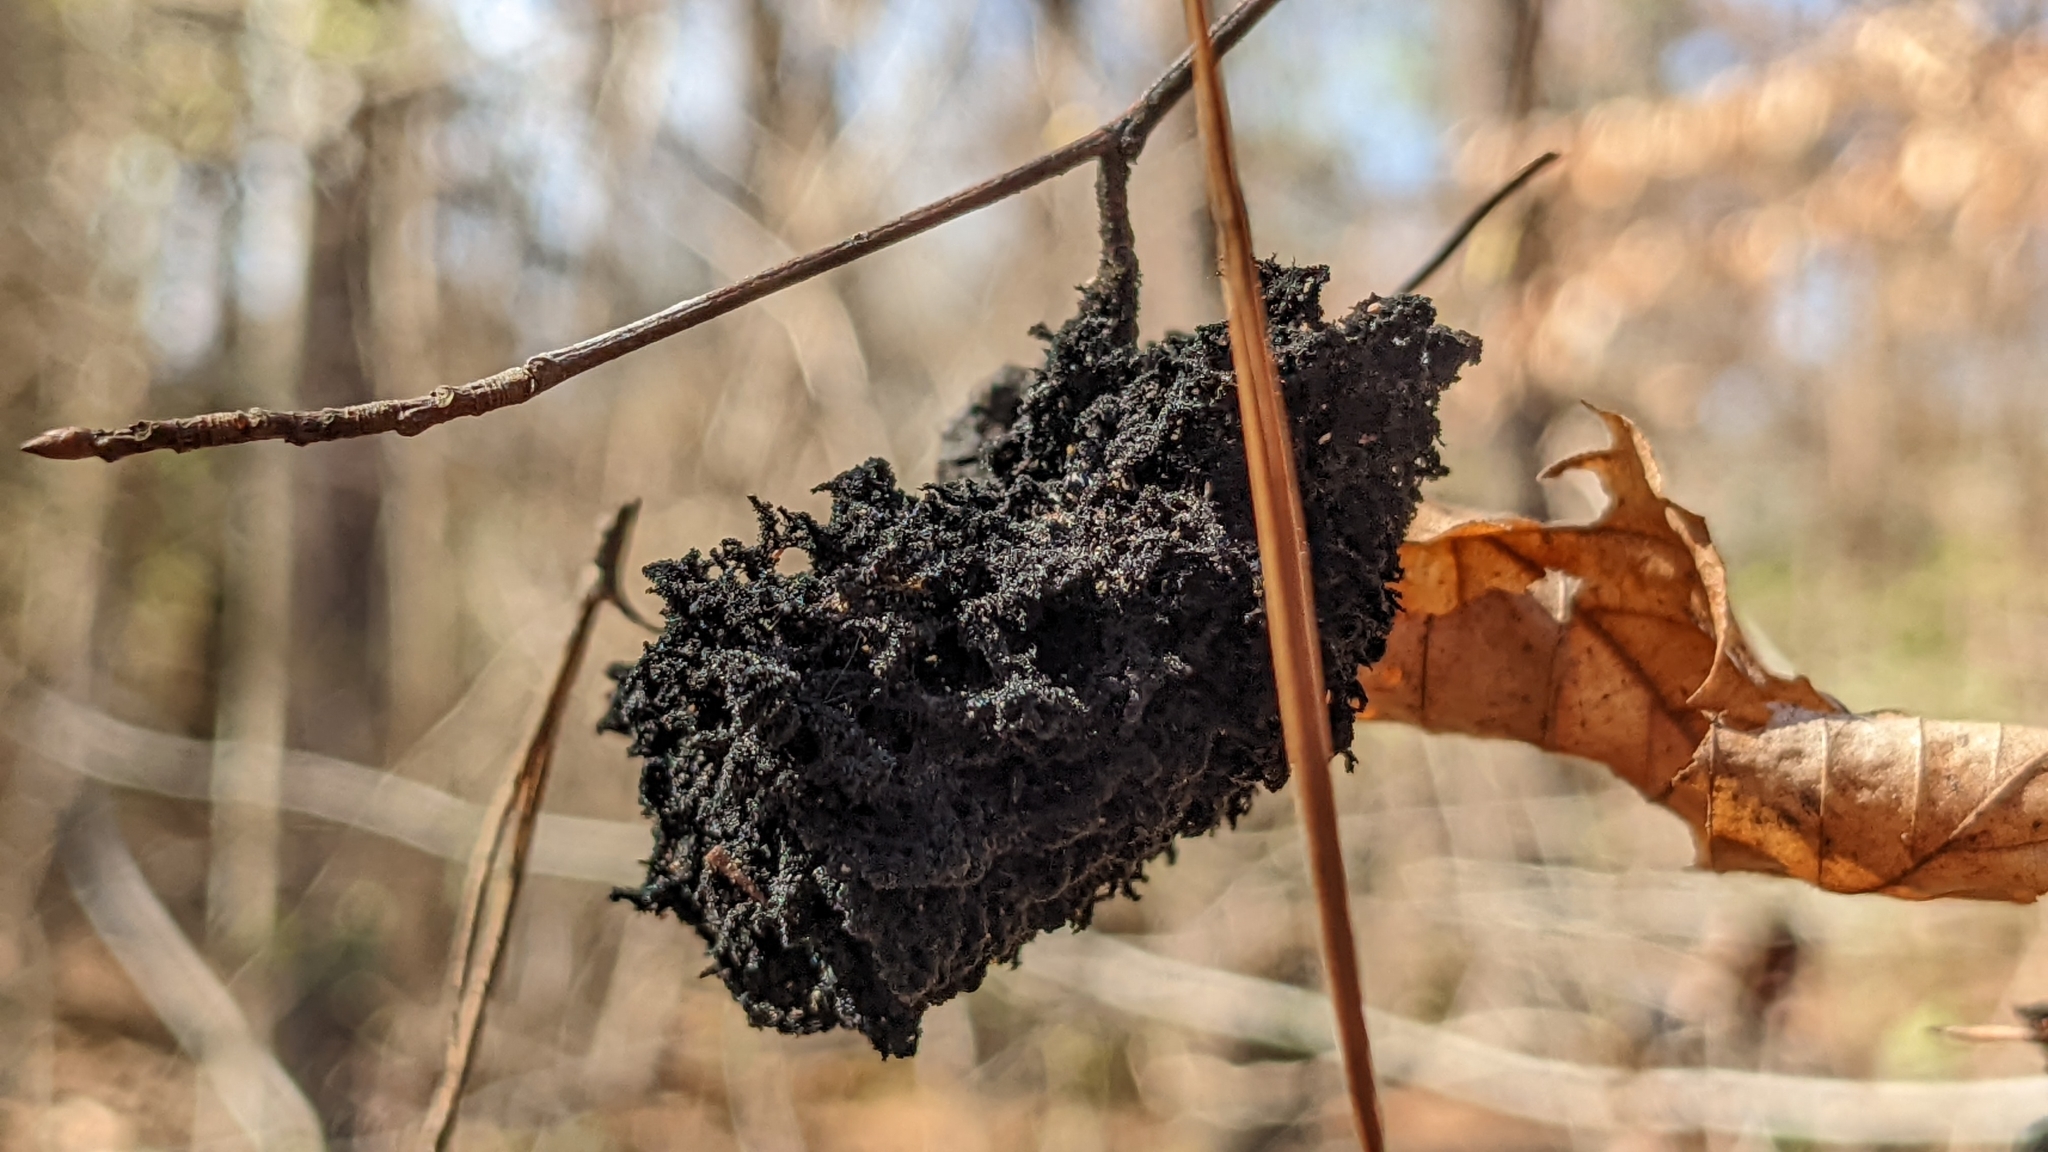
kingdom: Fungi
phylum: Ascomycota
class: Dothideomycetes
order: Capnodiales
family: Capnodiaceae
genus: Scorias
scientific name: Scorias spongiosa
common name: Black sooty mold
